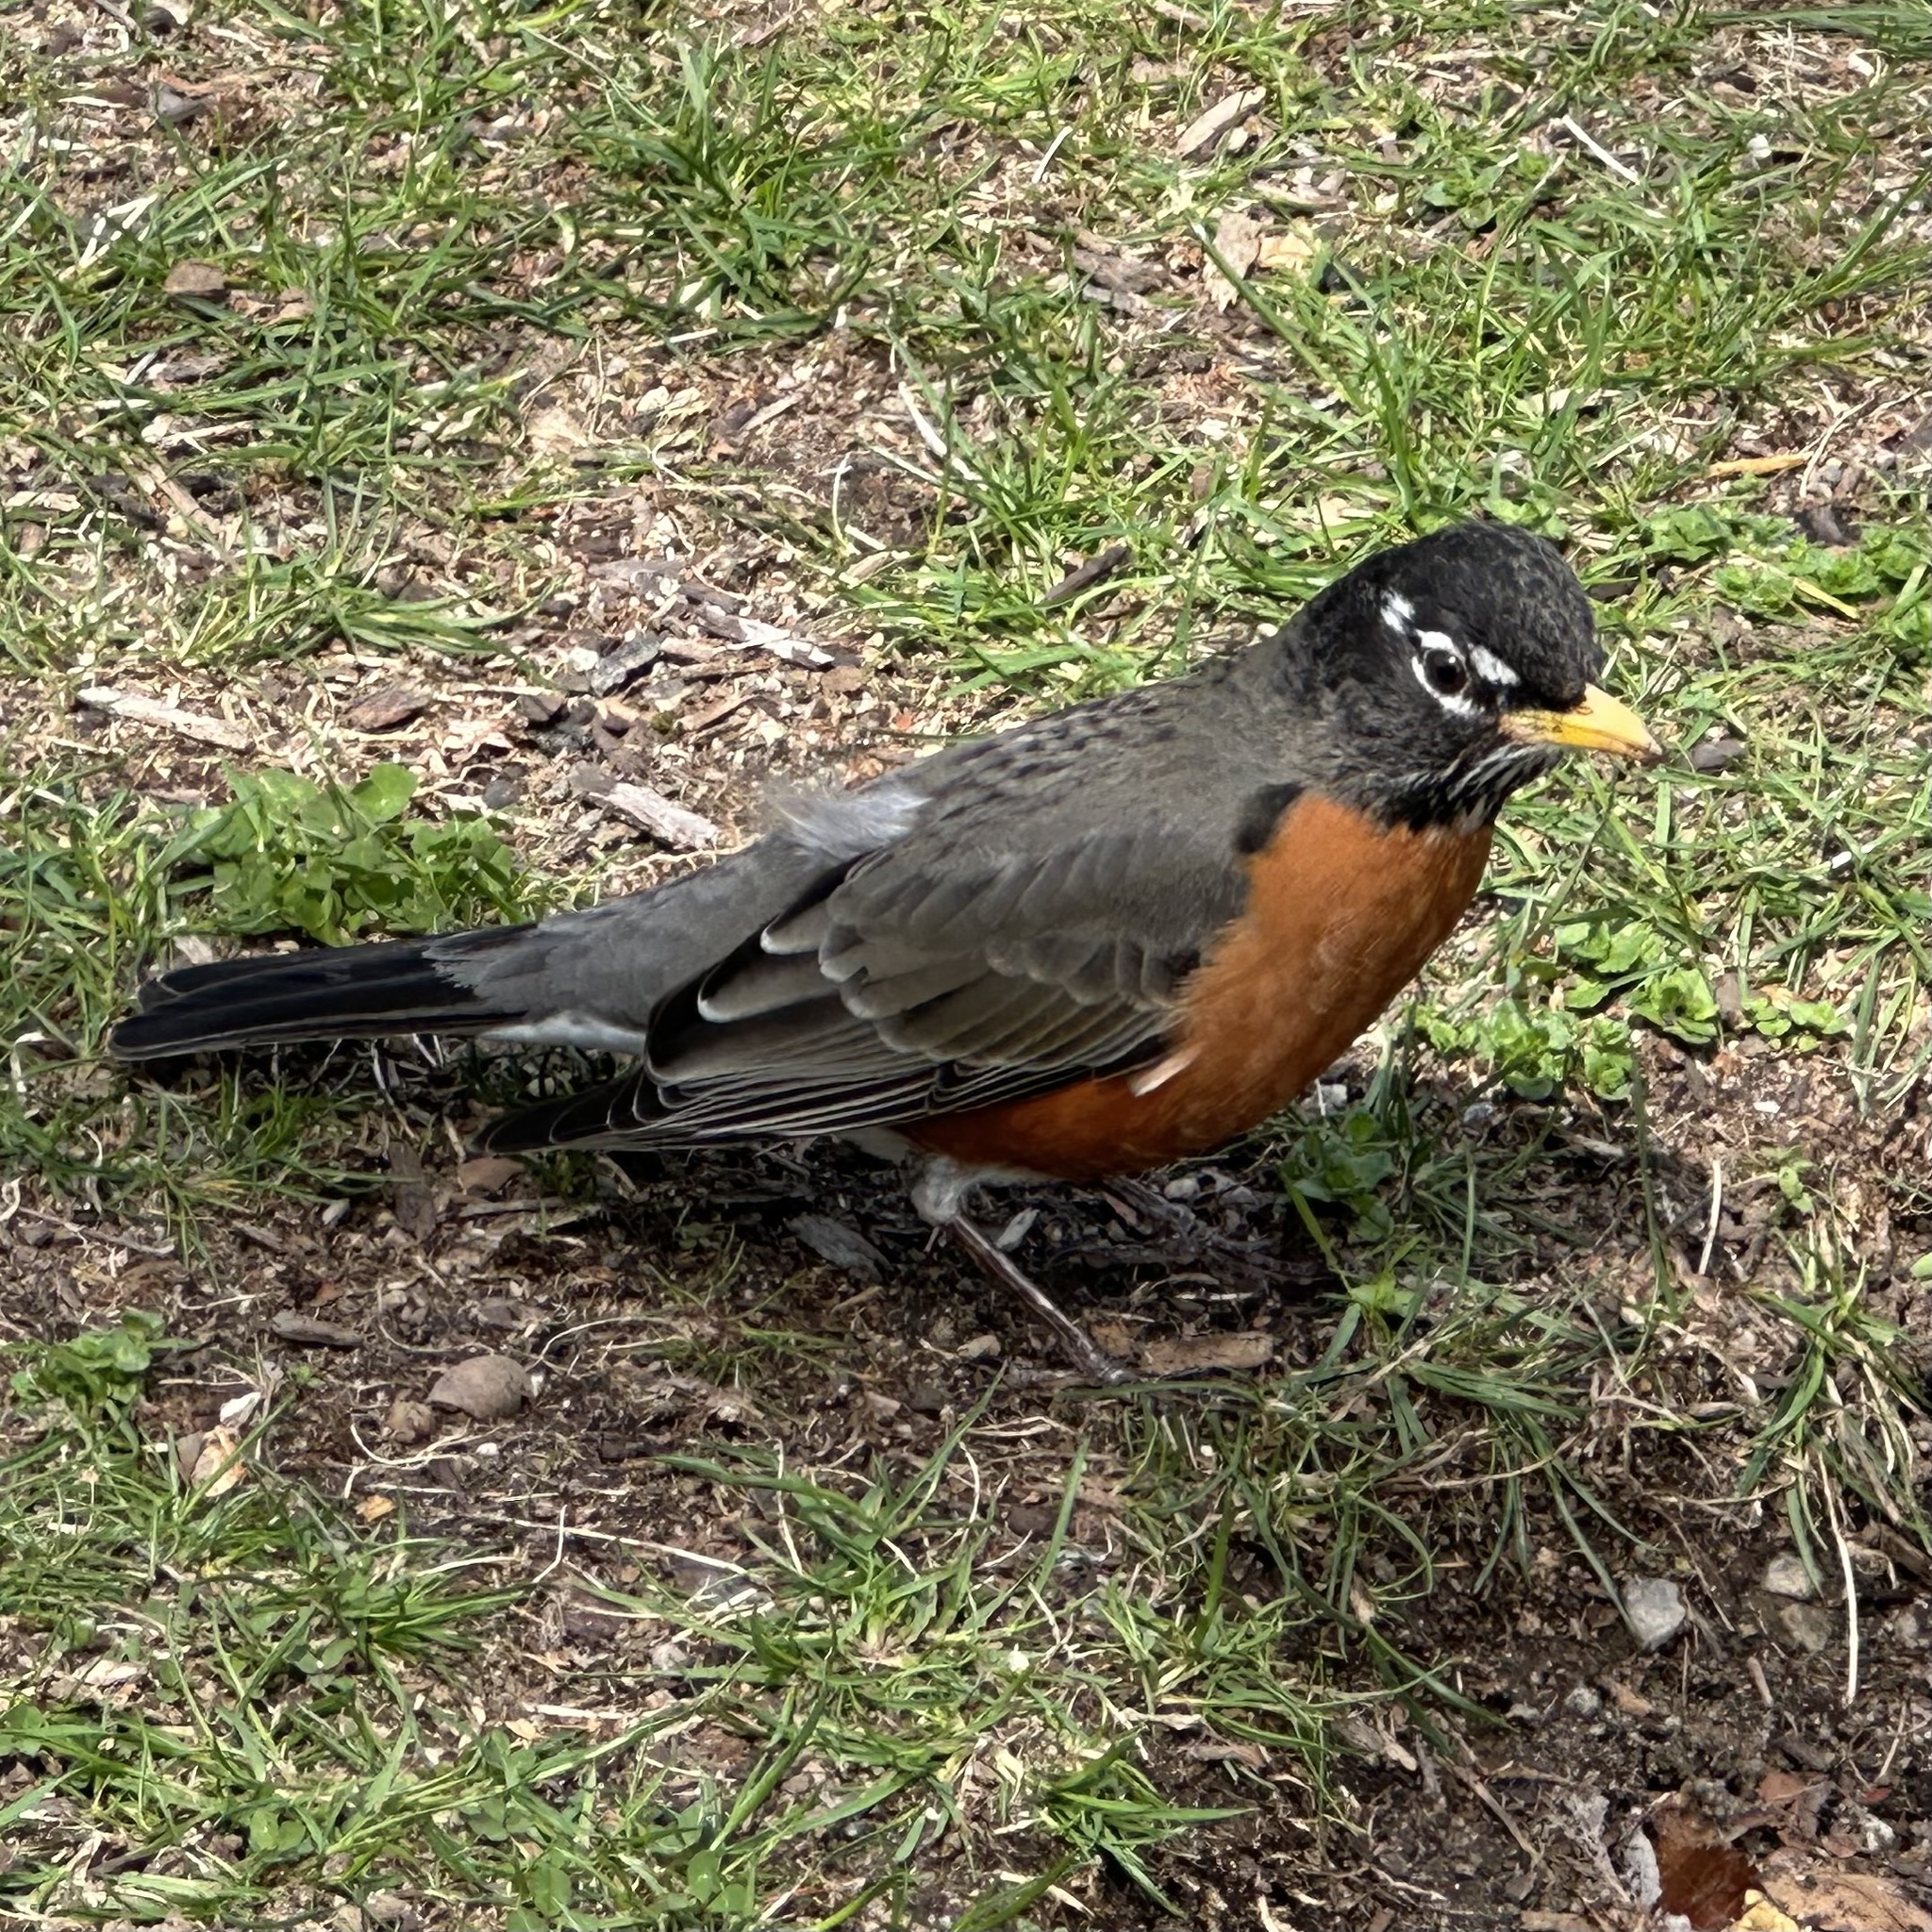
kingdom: Animalia
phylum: Chordata
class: Aves
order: Passeriformes
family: Turdidae
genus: Turdus
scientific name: Turdus migratorius
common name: American robin
